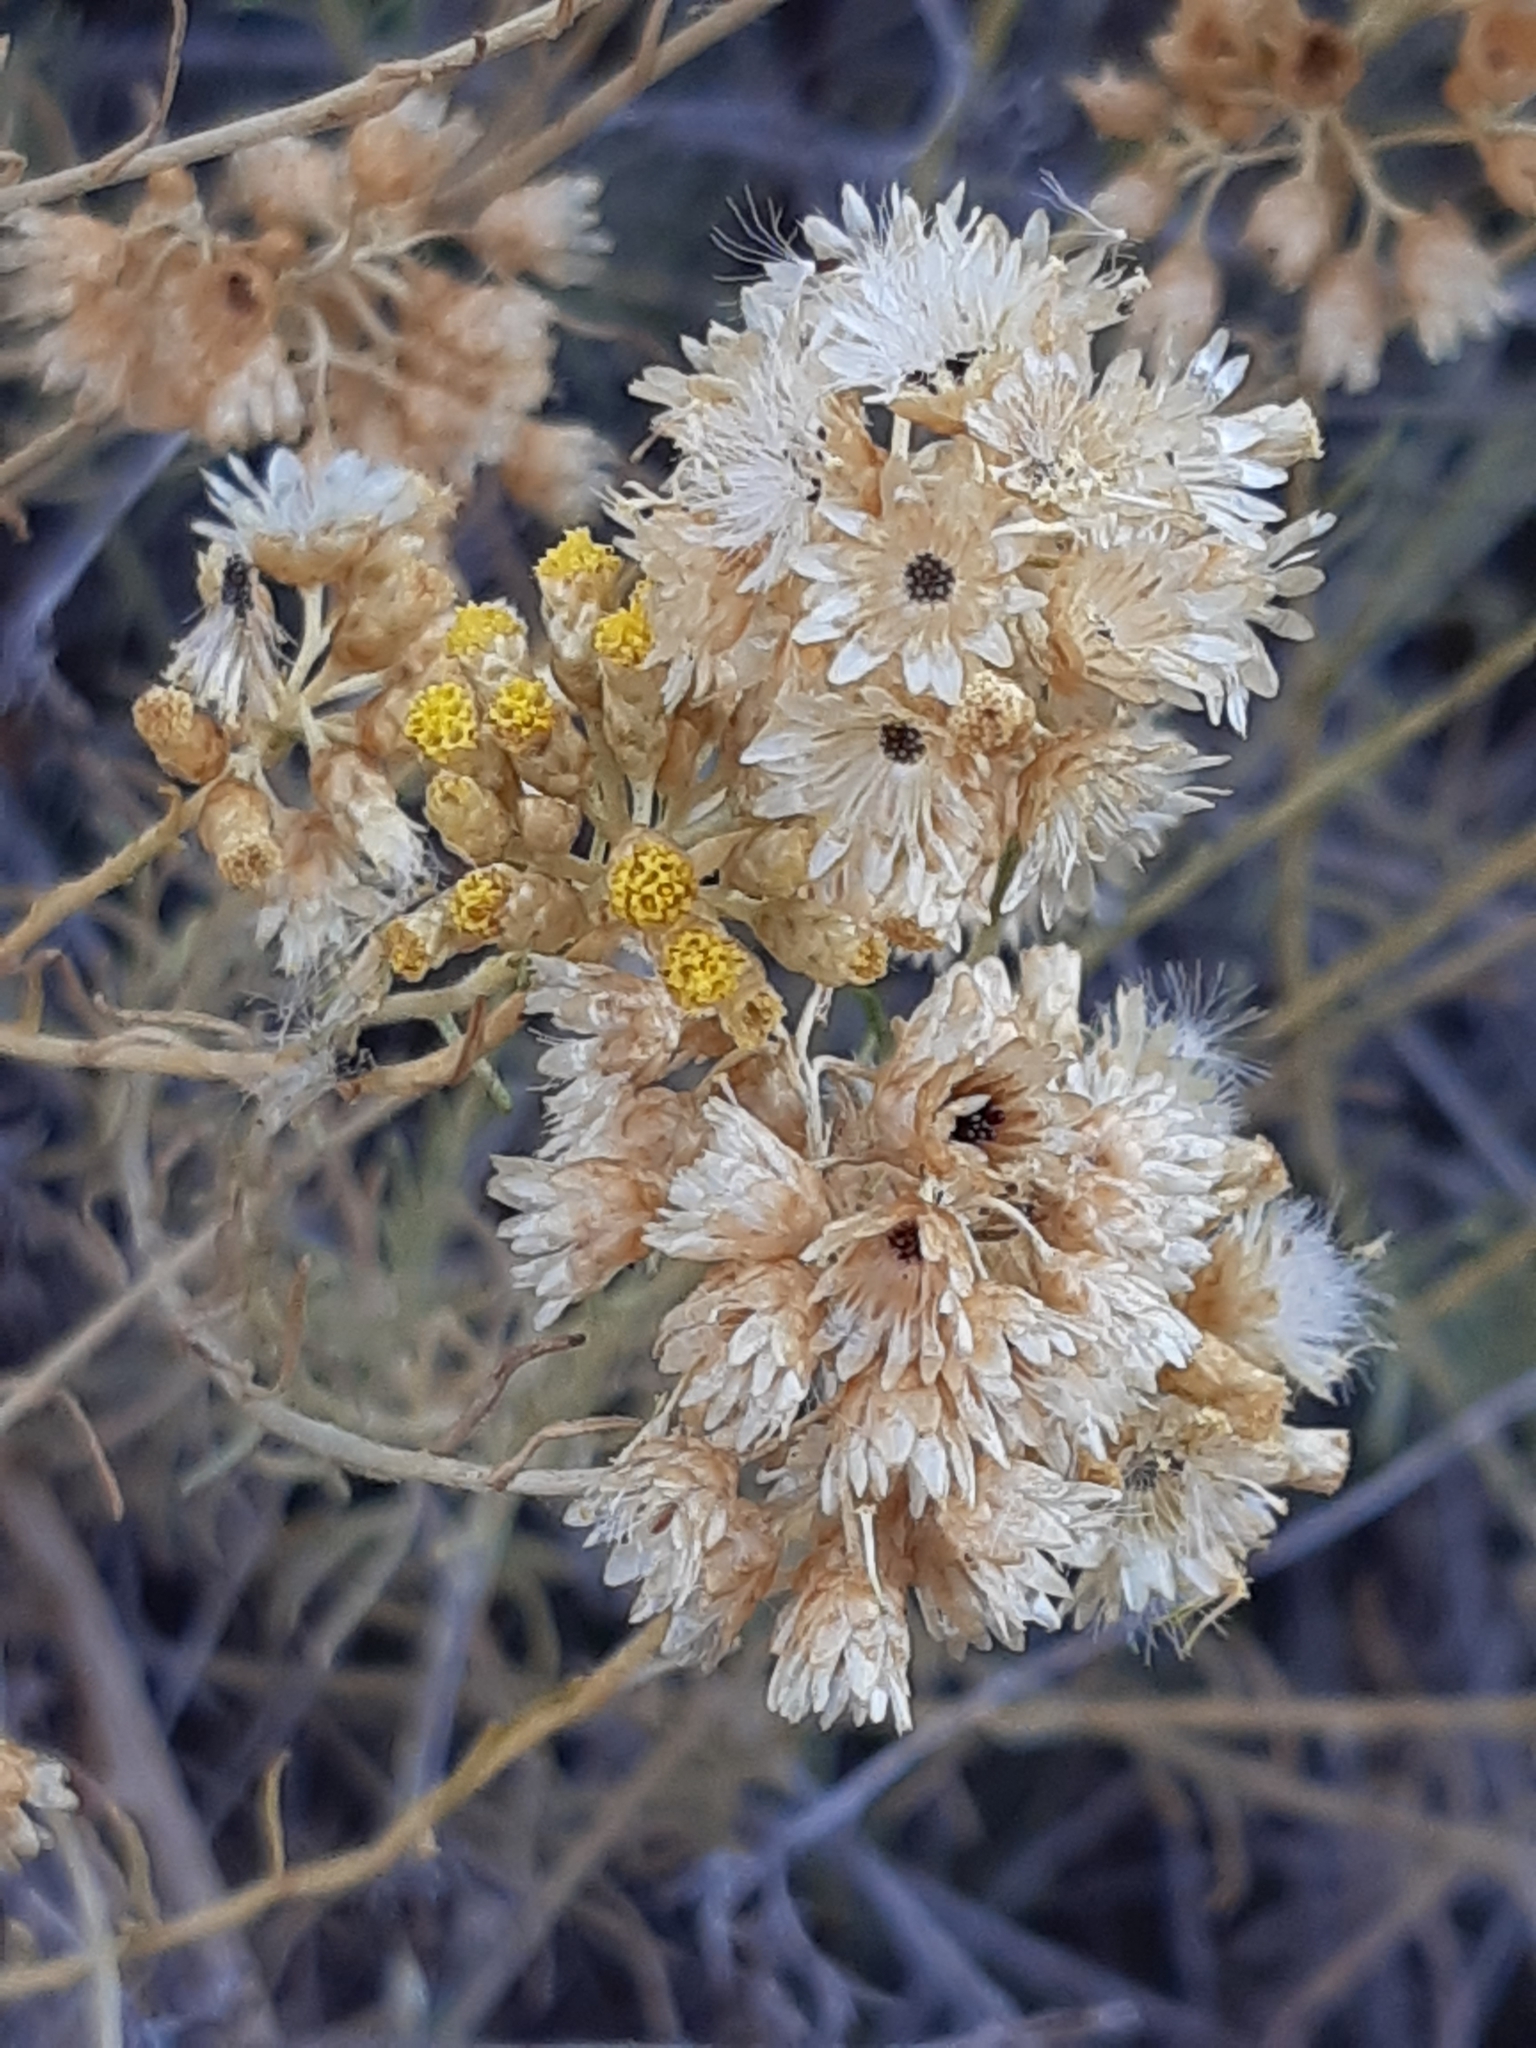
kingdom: Plantae
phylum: Tracheophyta
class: Magnoliopsida
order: Asterales
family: Asteraceae
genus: Helichrysum
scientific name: Helichrysum italicum
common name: Curryplant
